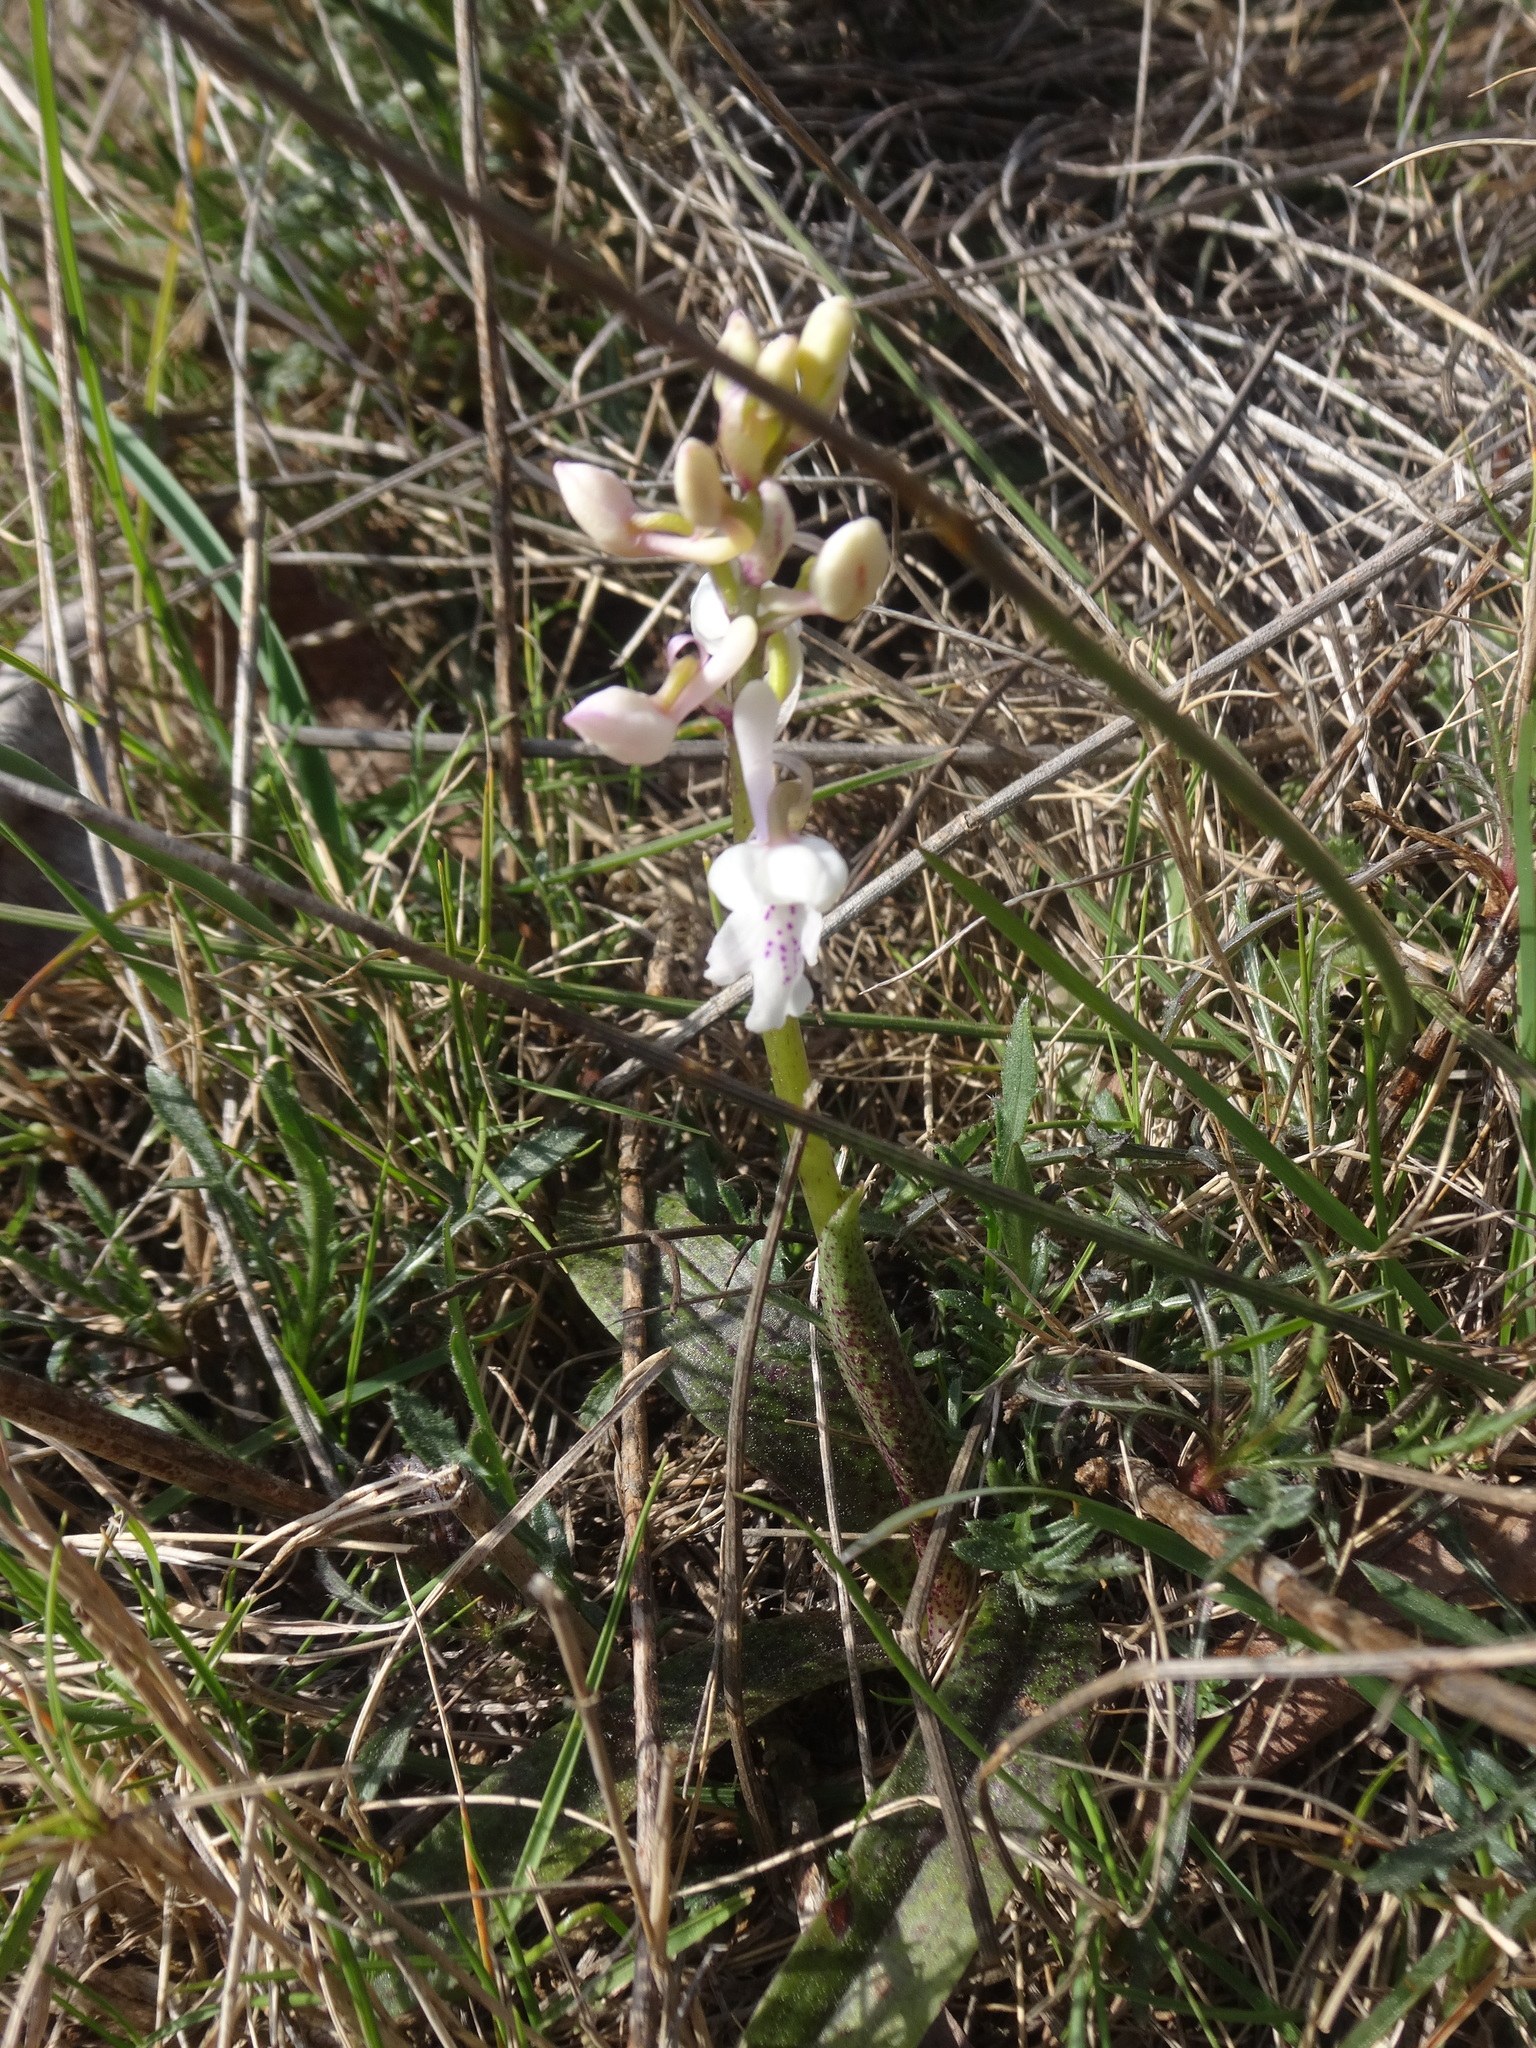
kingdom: Plantae
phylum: Tracheophyta
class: Liliopsida
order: Asparagales
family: Orchidaceae
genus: Orchis
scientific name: Orchis olbiensis
